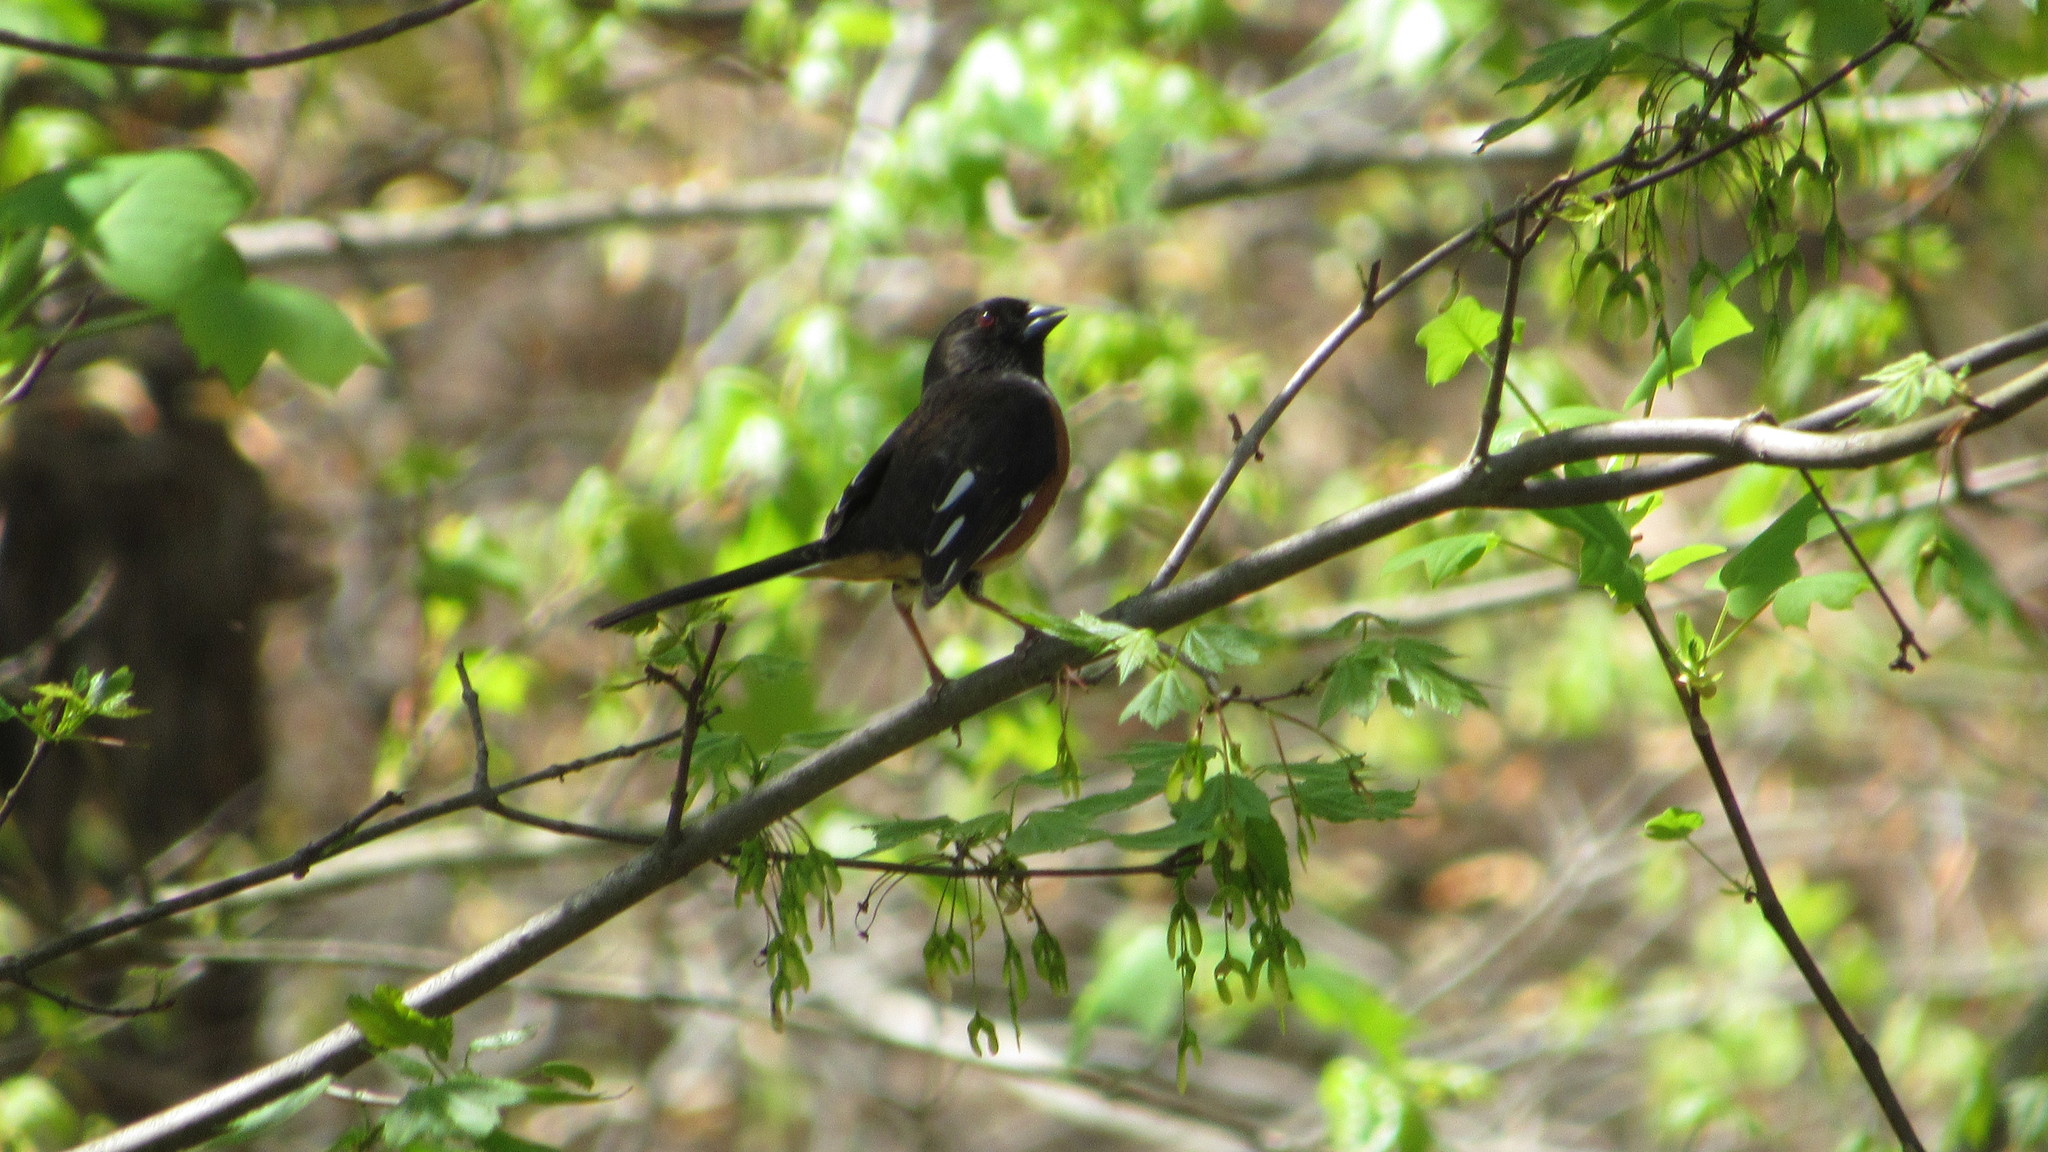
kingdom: Animalia
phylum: Chordata
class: Aves
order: Passeriformes
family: Passerellidae
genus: Pipilo
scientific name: Pipilo erythrophthalmus
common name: Eastern towhee
